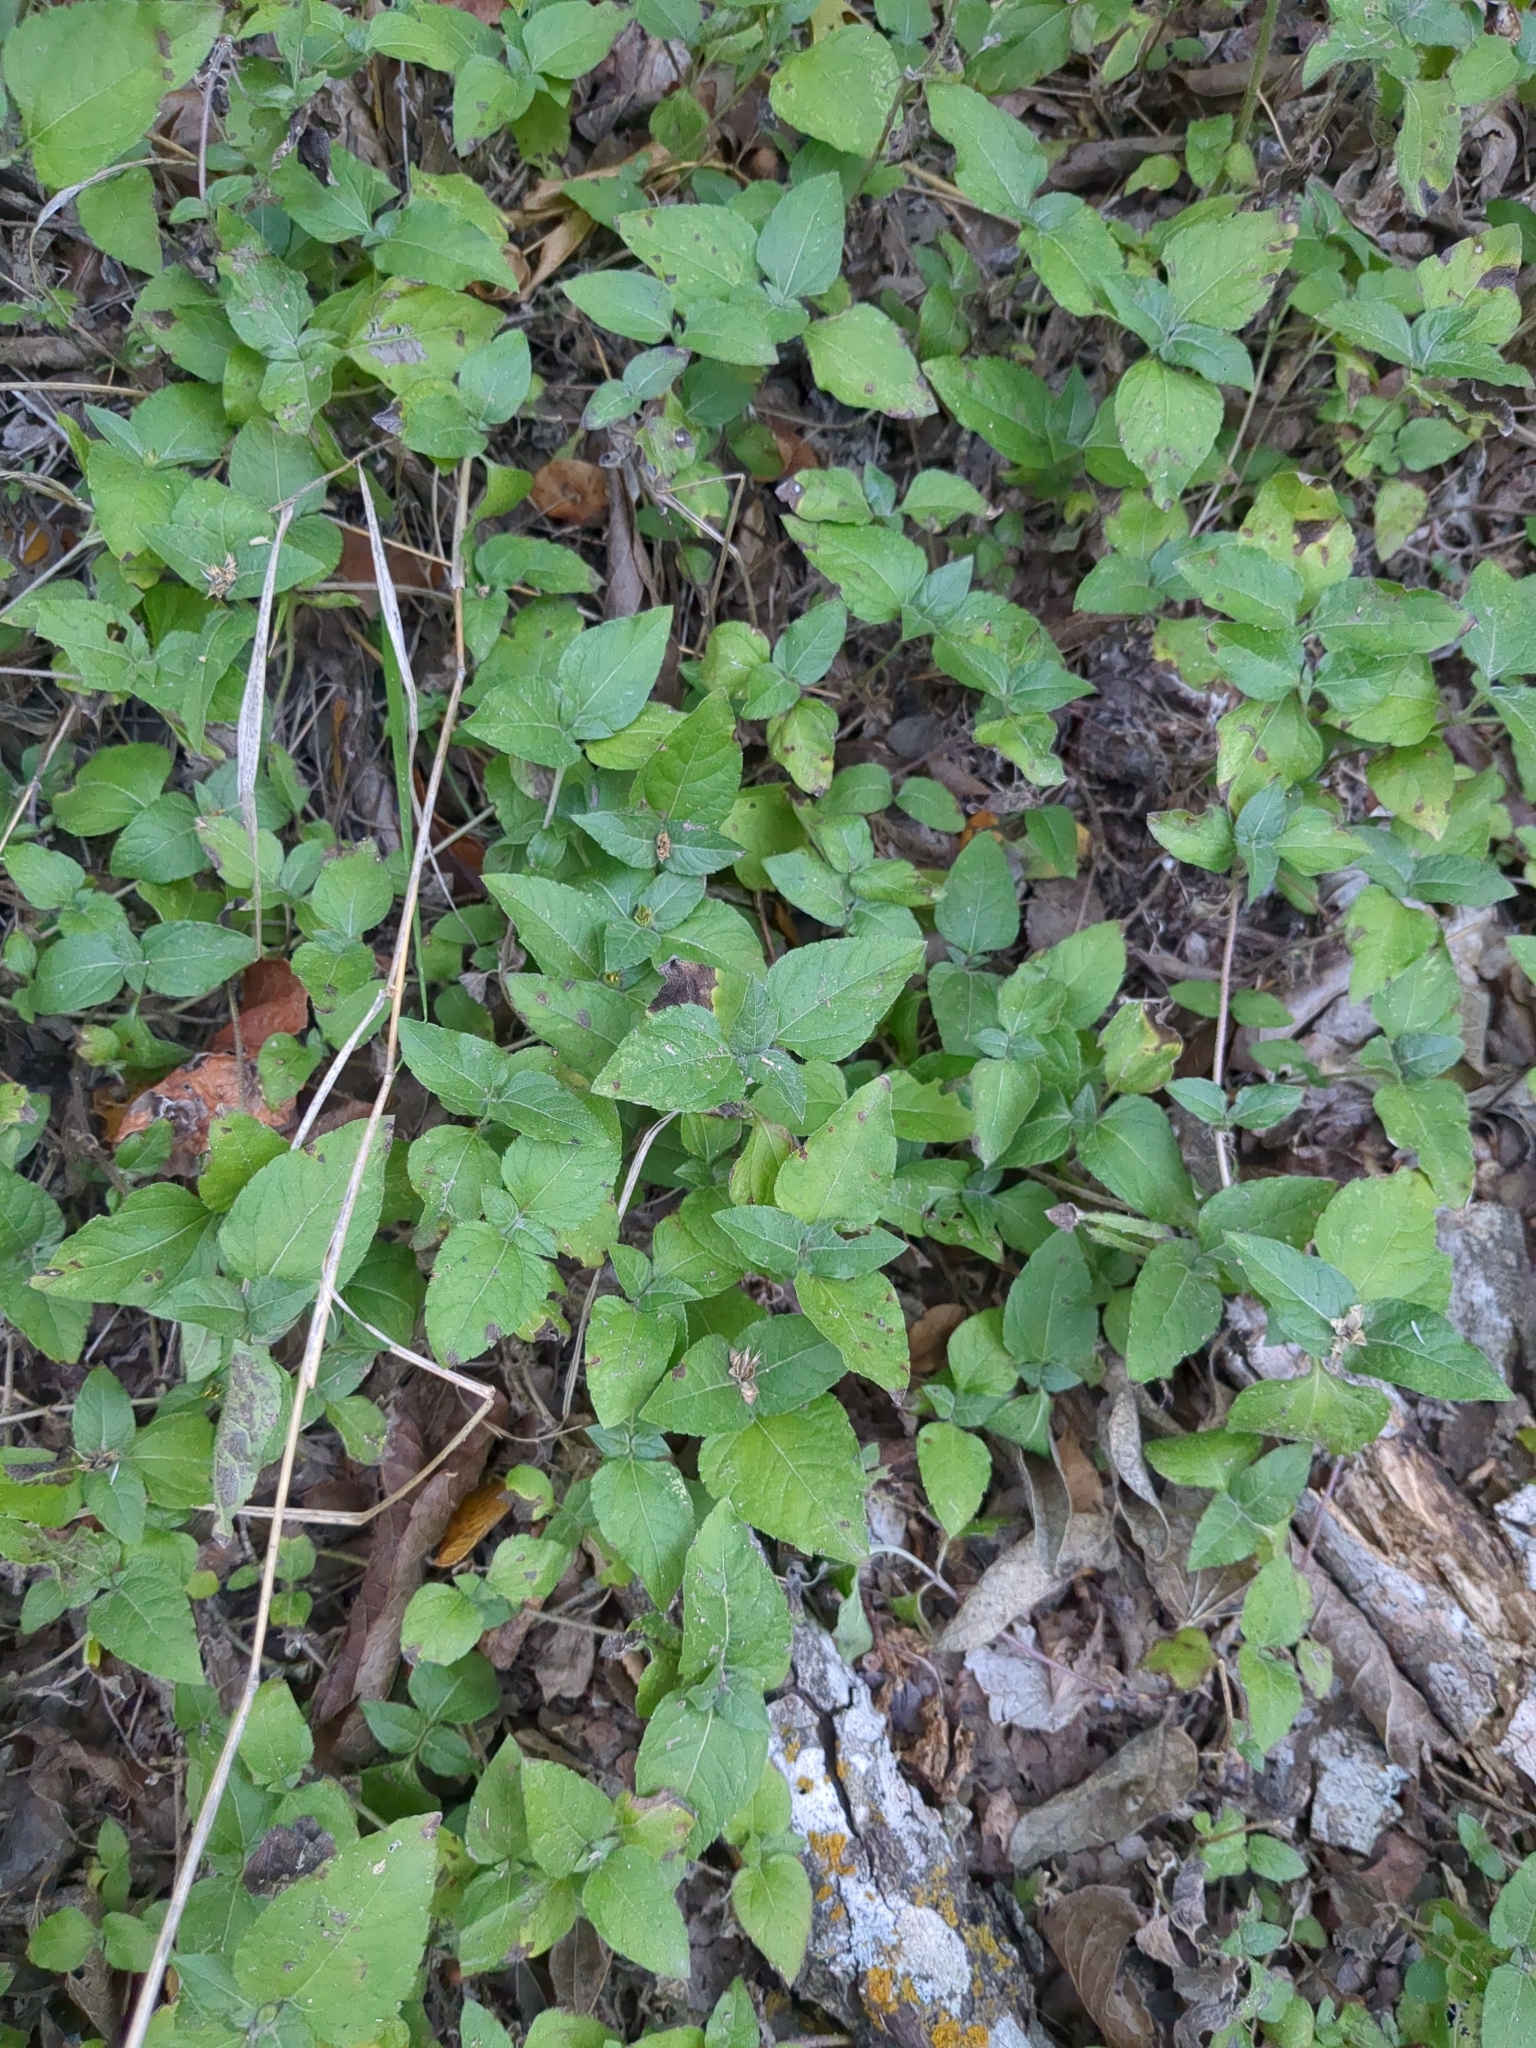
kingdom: Plantae
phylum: Tracheophyta
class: Magnoliopsida
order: Asterales
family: Asteraceae
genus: Calyptocarpus
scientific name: Calyptocarpus vialis
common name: Straggler daisy
